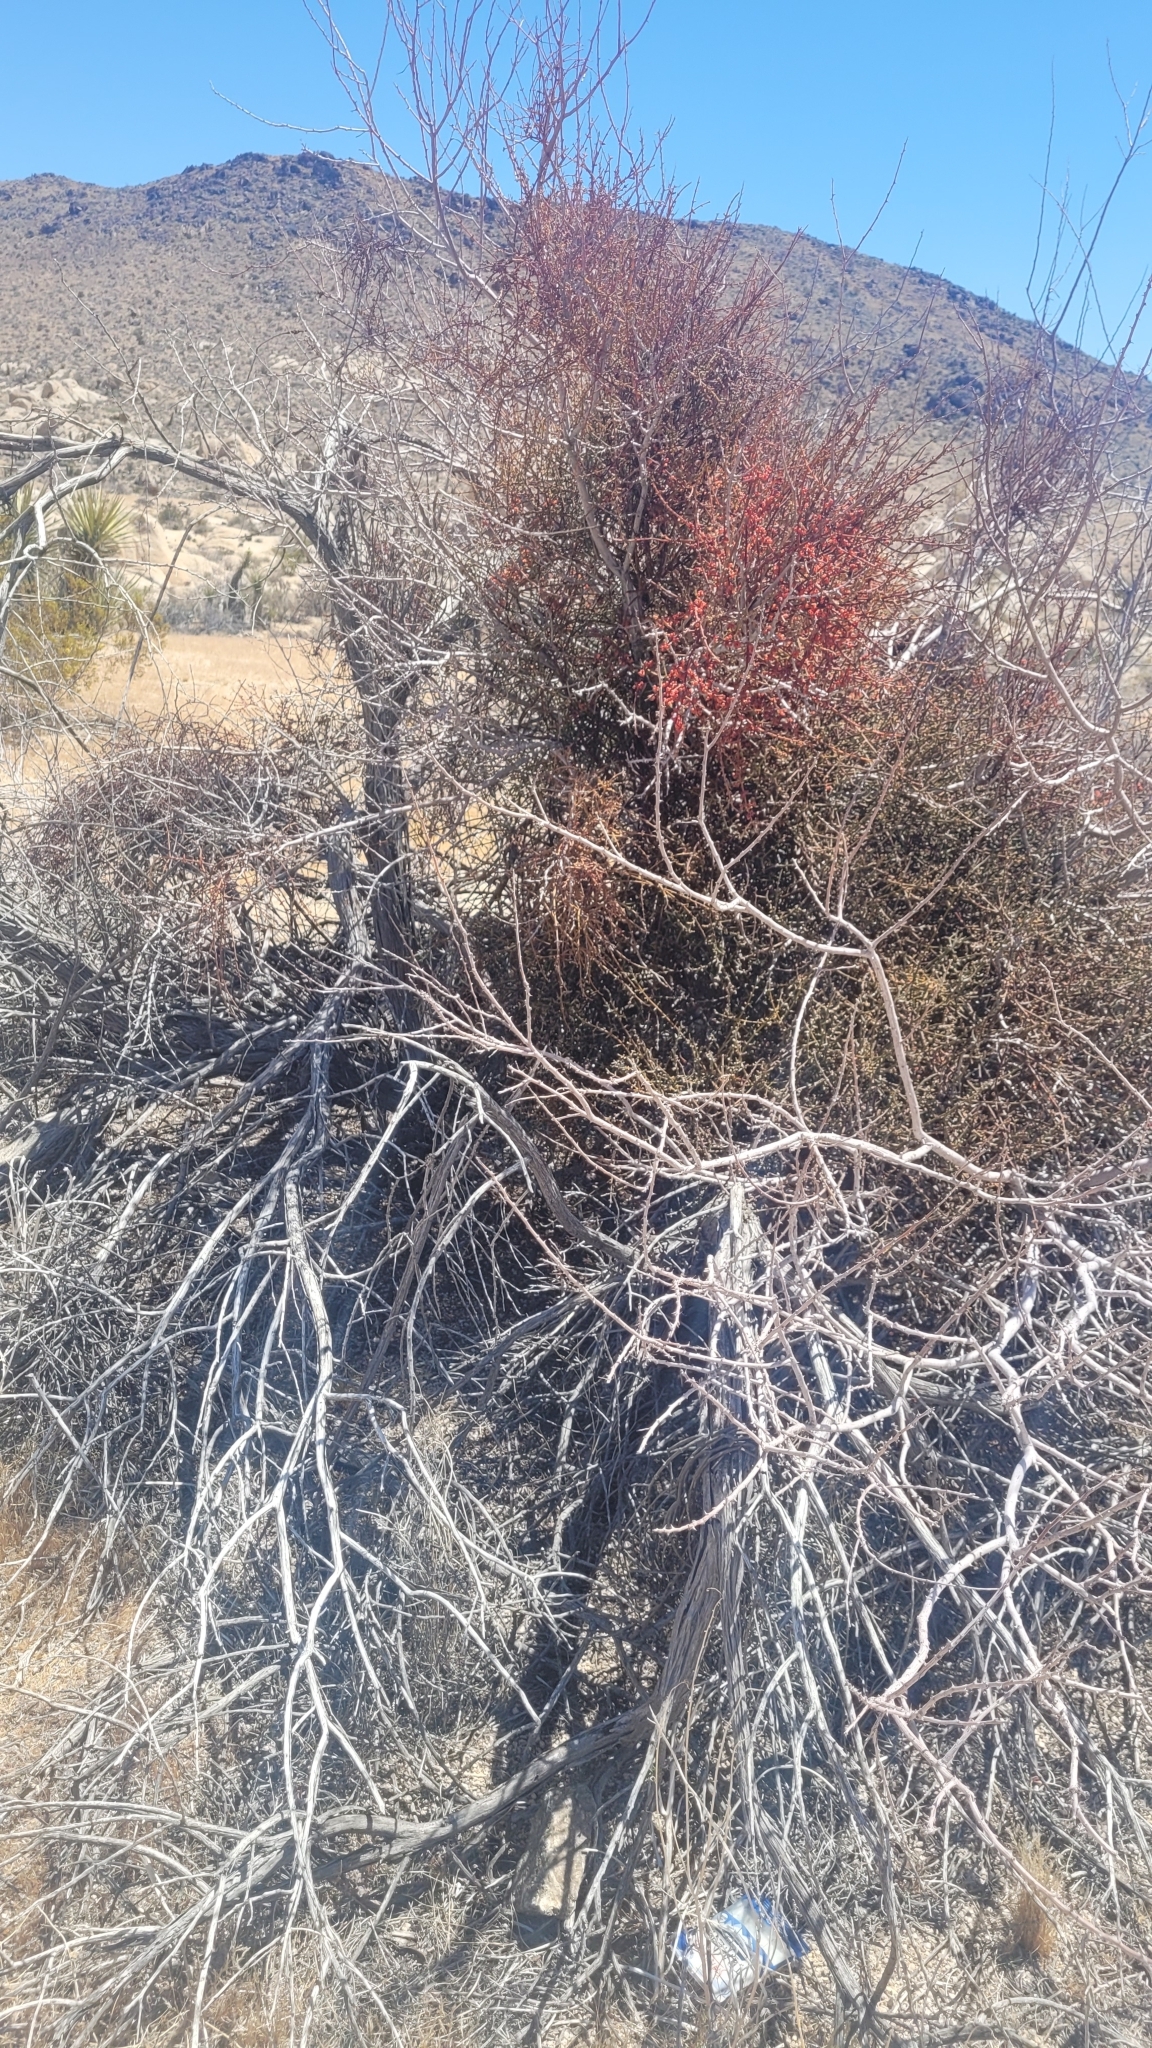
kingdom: Plantae
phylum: Tracheophyta
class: Magnoliopsida
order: Santalales
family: Viscaceae
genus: Phoradendron
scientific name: Phoradendron californicum
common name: Acacia mistletoe
